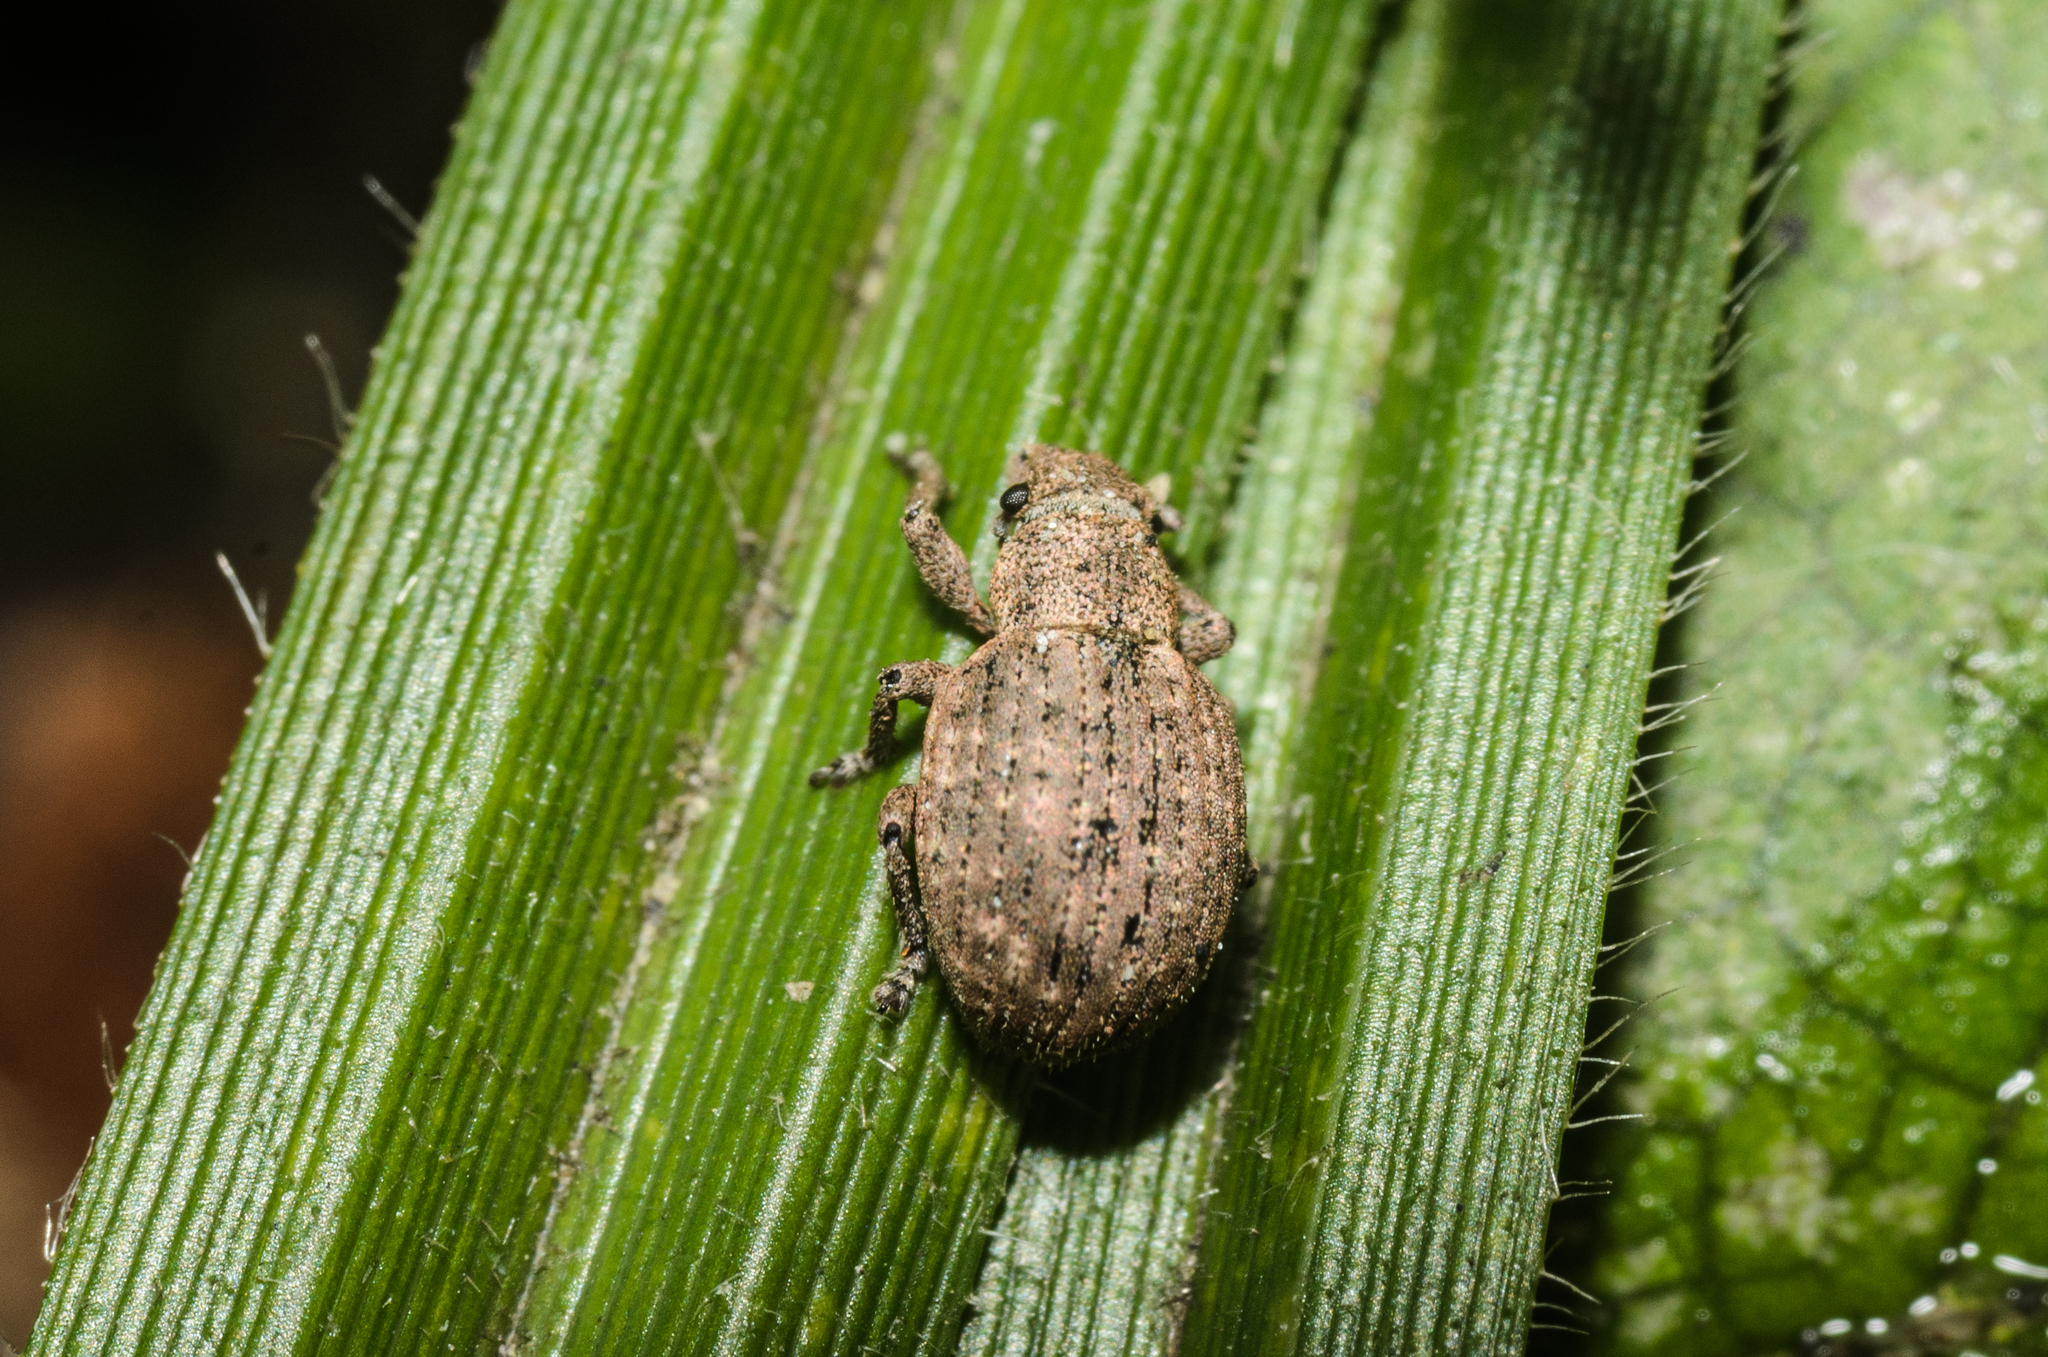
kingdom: Animalia
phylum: Arthropoda
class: Insecta
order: Coleoptera
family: Curculionidae
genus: Strophosoma
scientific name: Strophosoma capitatum
